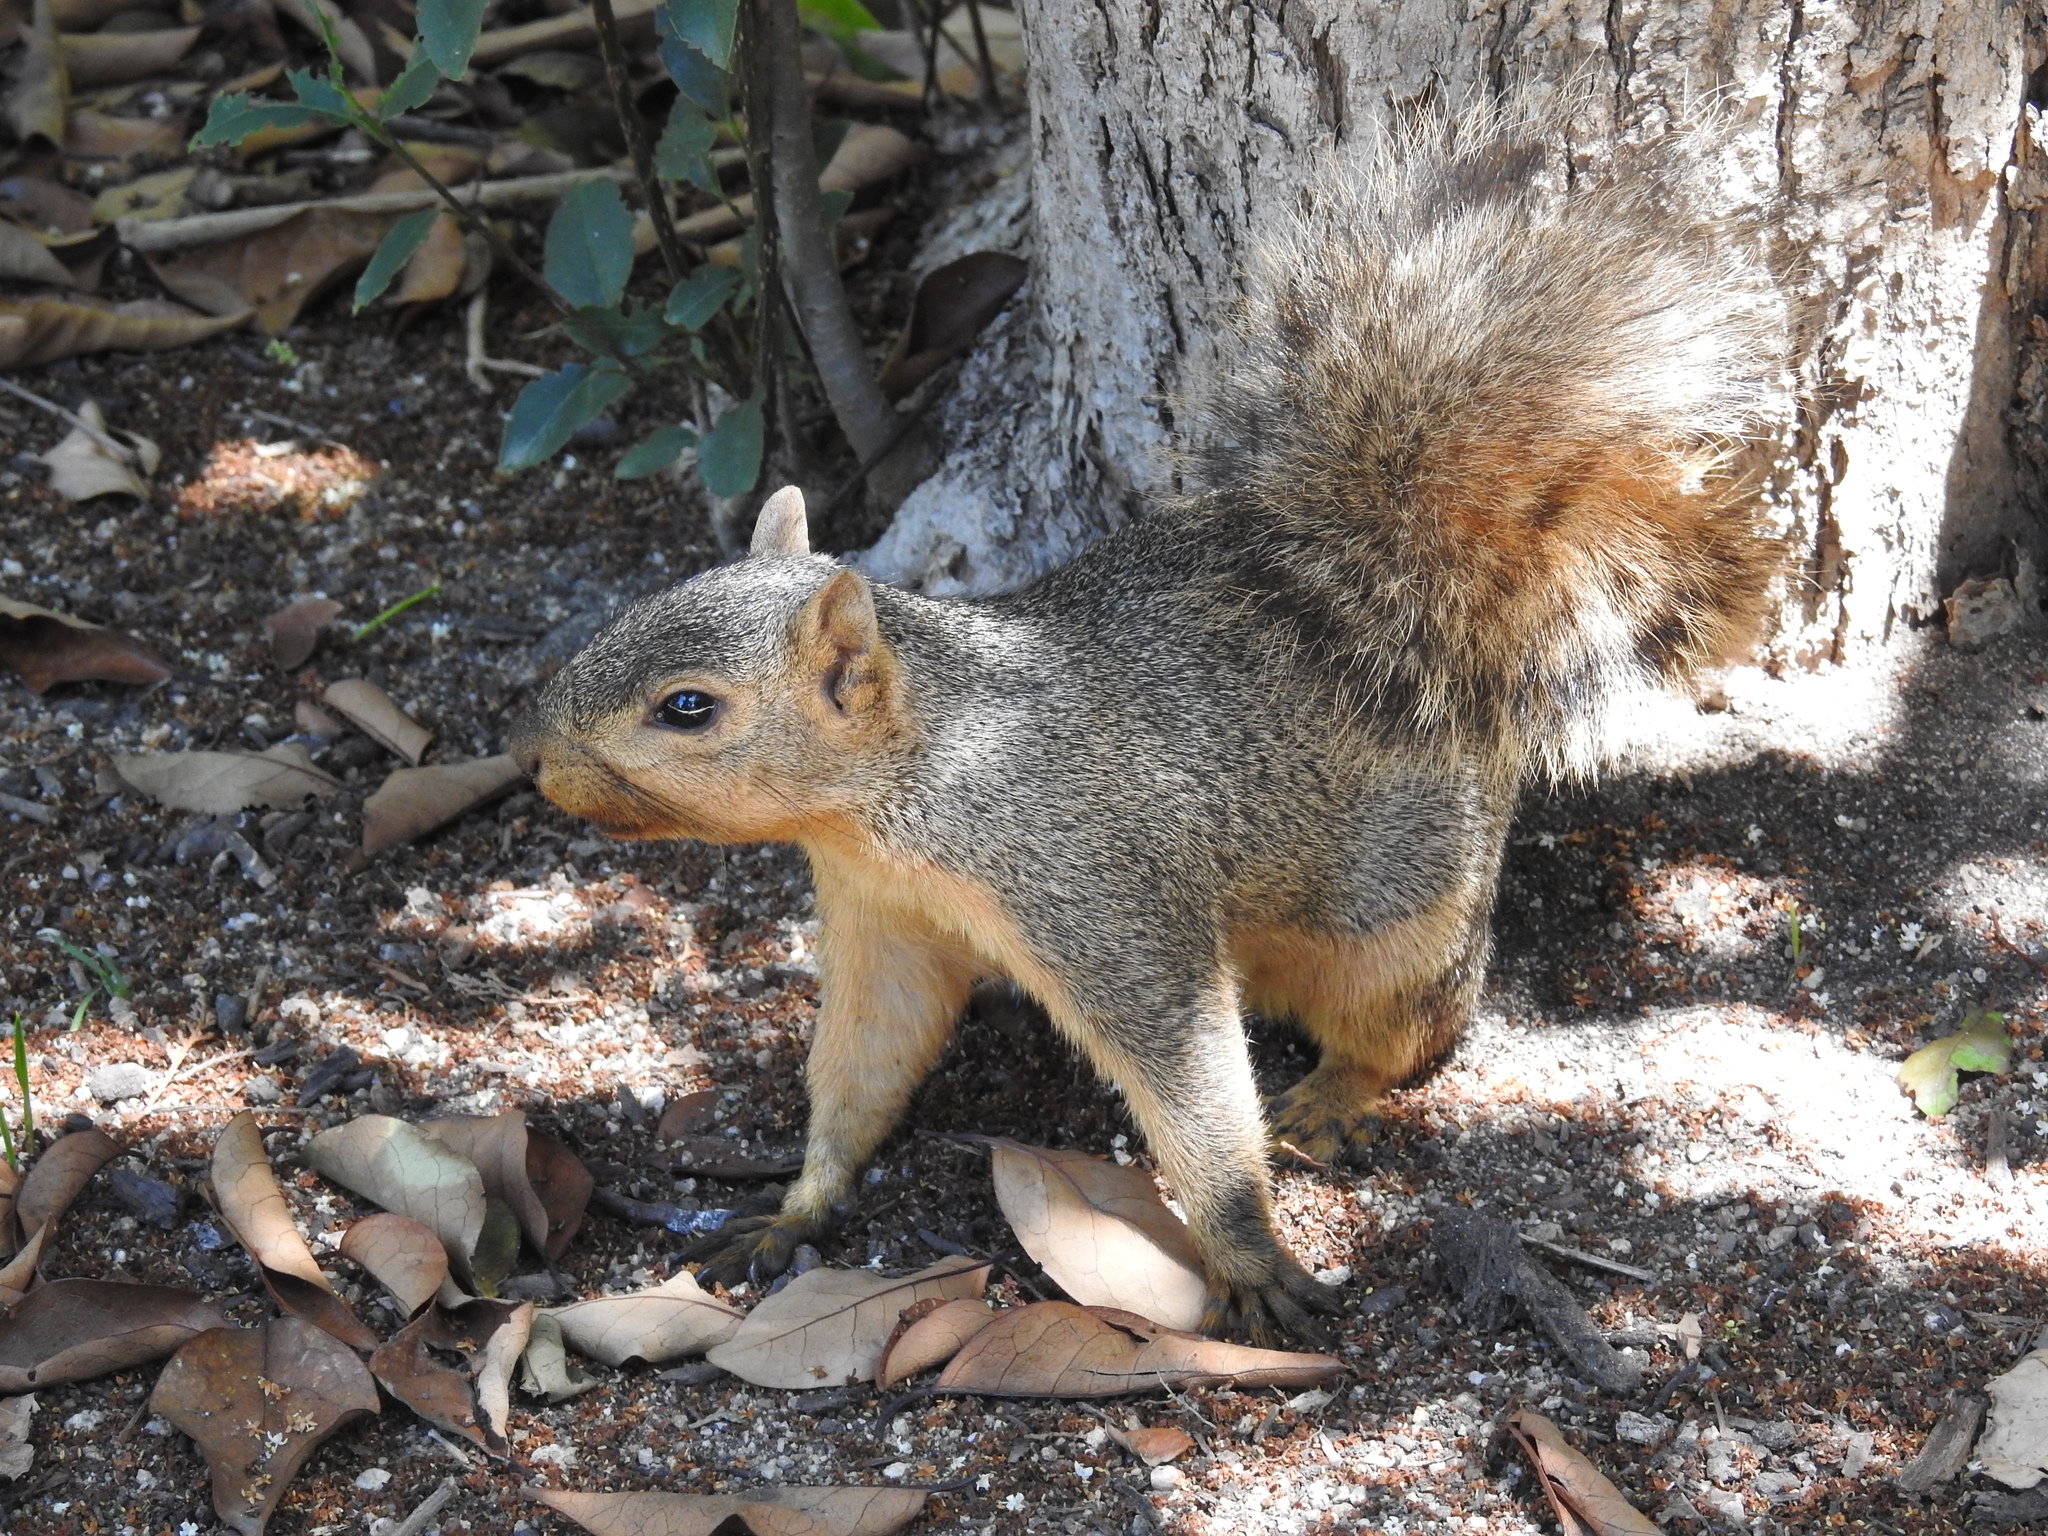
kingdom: Animalia
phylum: Chordata
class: Mammalia
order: Rodentia
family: Sciuridae
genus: Sciurus
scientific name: Sciurus niger
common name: Fox squirrel
